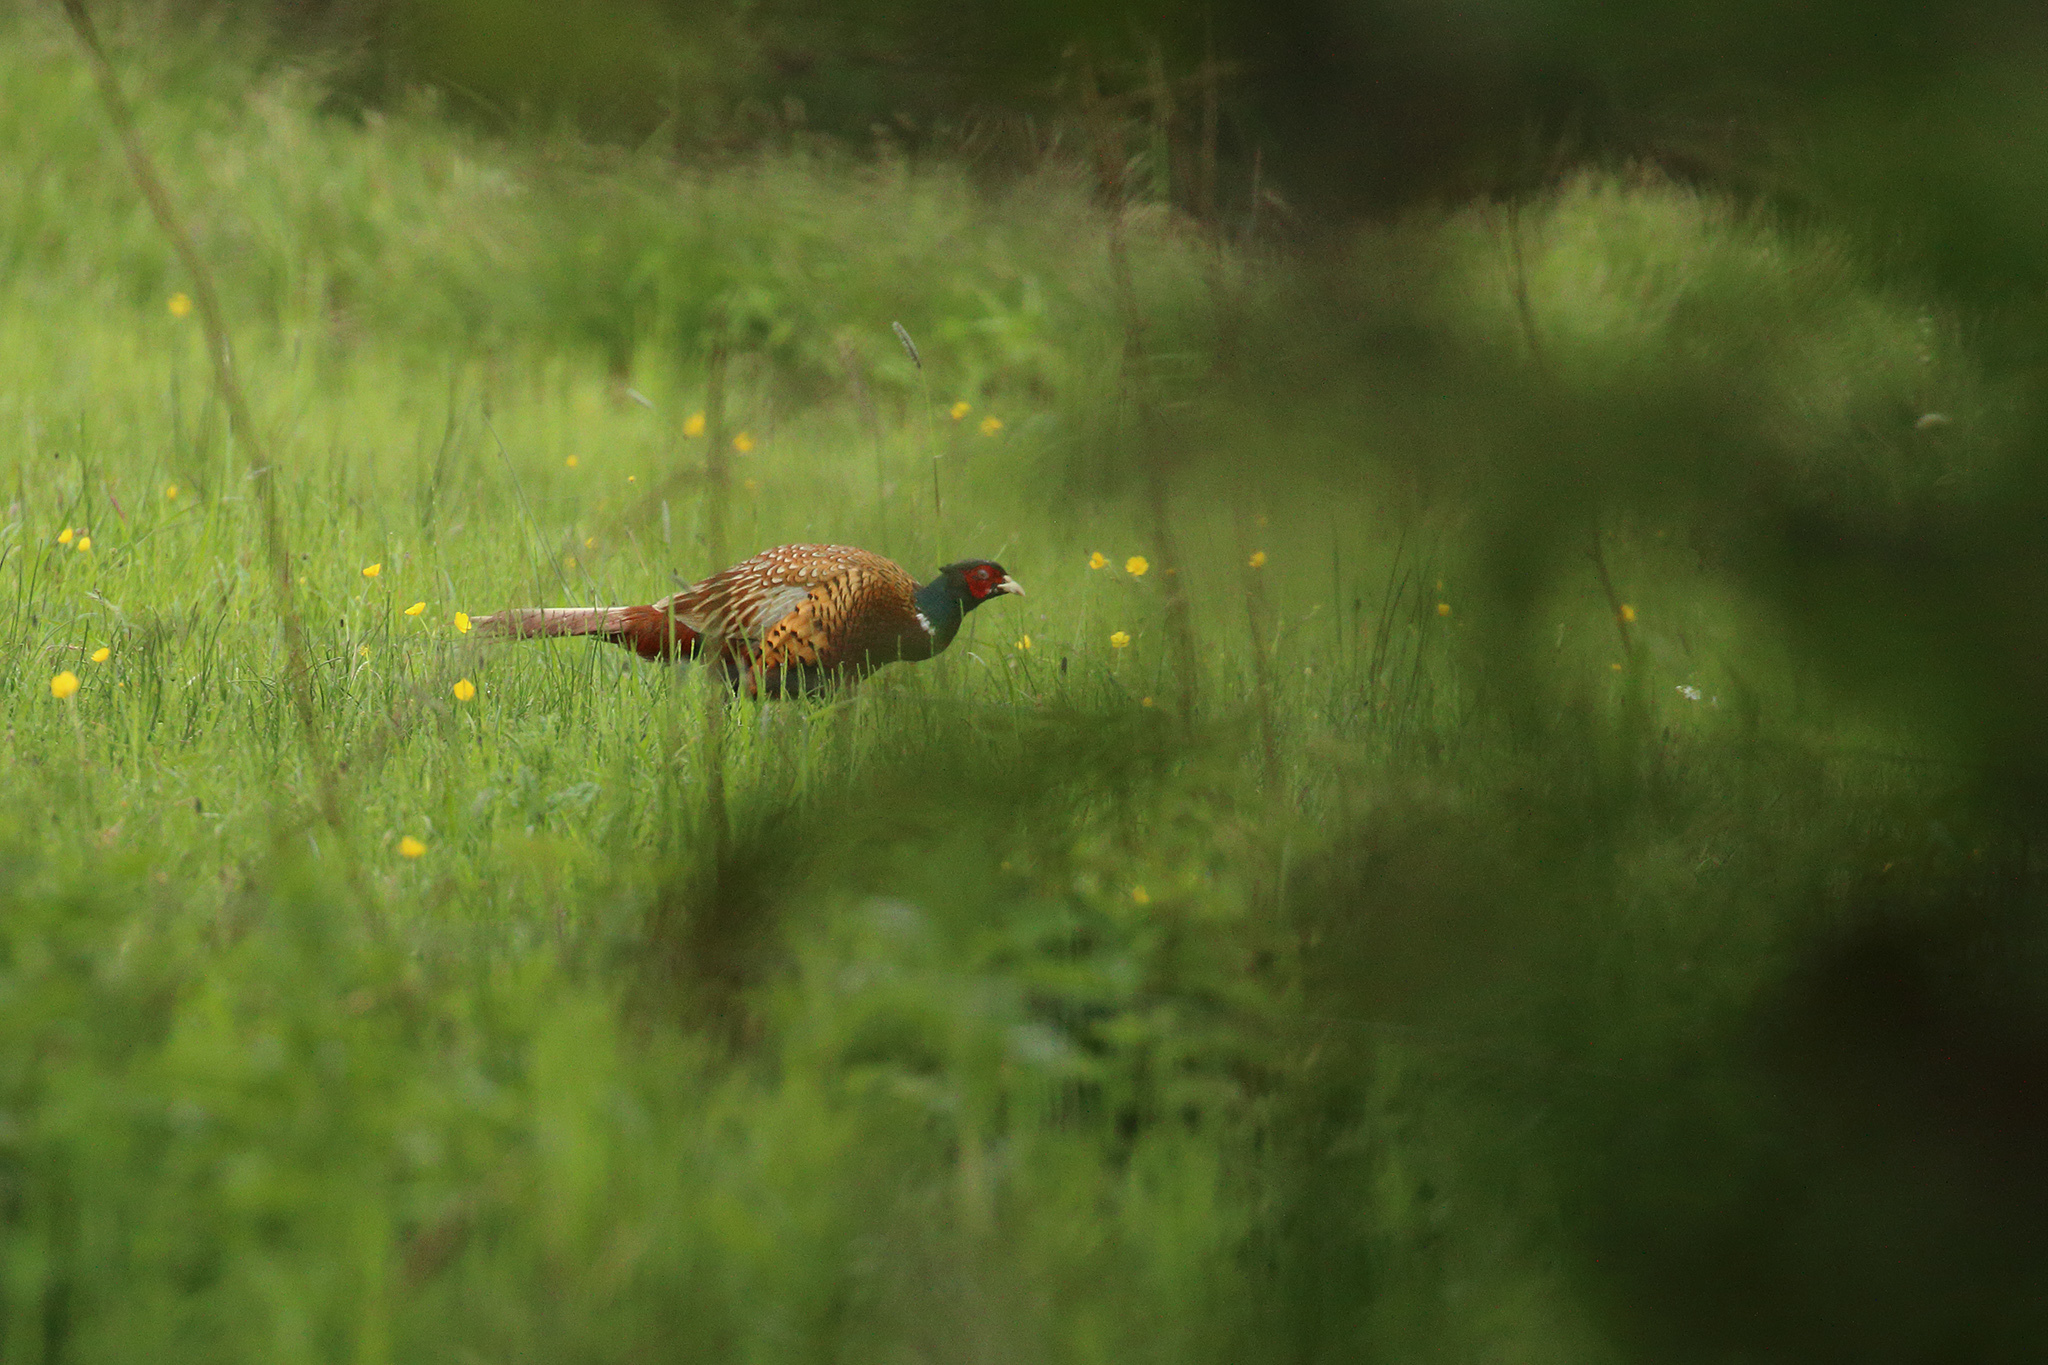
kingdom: Animalia
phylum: Chordata
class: Aves
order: Galliformes
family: Phasianidae
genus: Phasianus
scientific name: Phasianus colchicus
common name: Common pheasant
